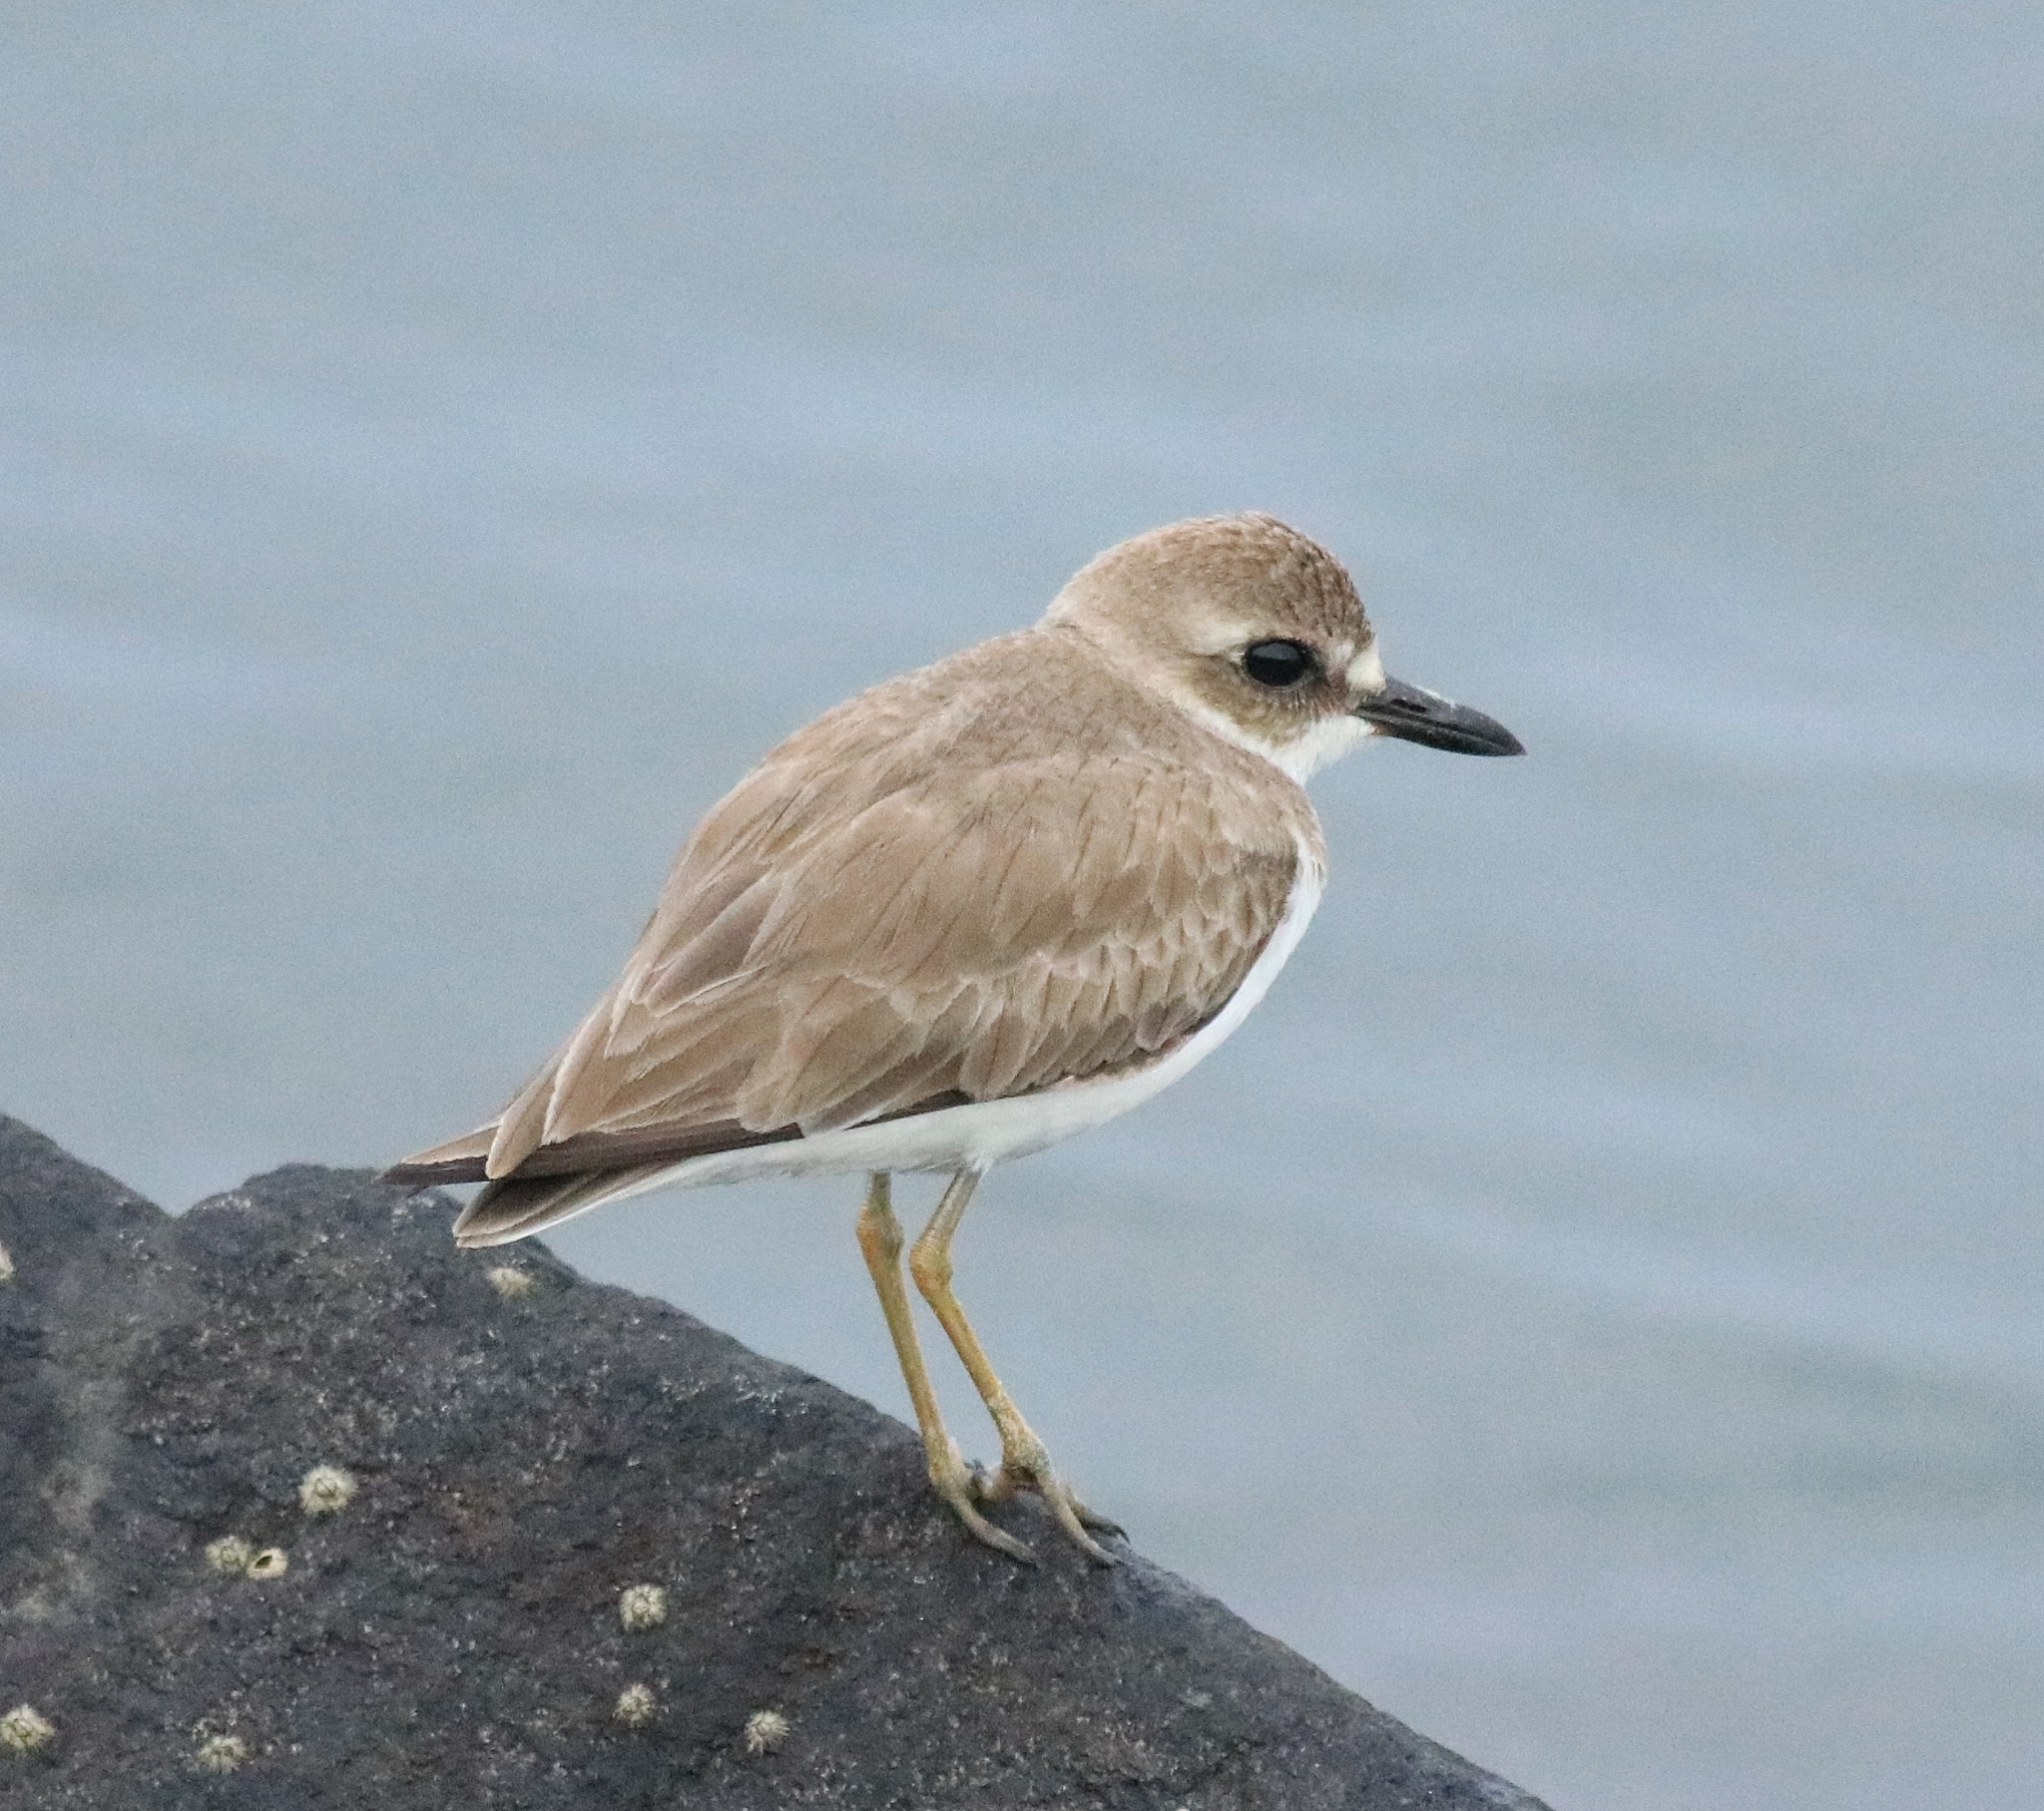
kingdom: Animalia
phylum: Chordata
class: Aves
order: Charadriiformes
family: Charadriidae
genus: Charadrius
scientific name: Charadrius leschenaultii
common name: Greater sand plover
